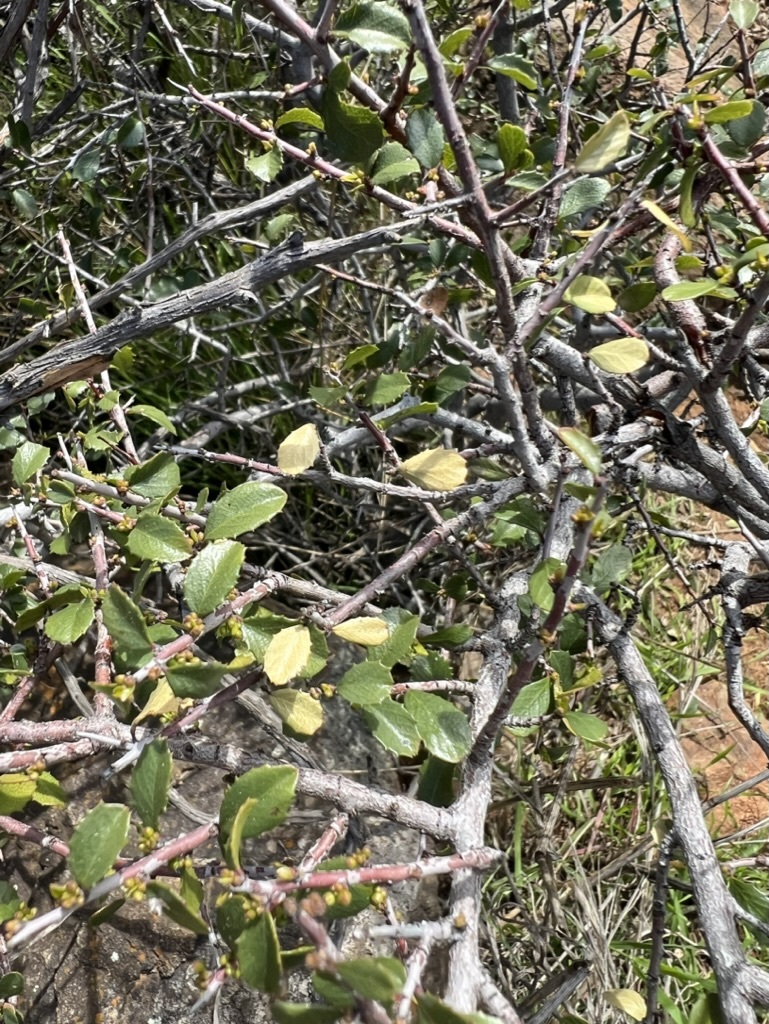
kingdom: Plantae
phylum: Tracheophyta
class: Magnoliopsida
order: Rosales
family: Rhamnaceae
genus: Endotropis
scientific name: Endotropis crocea
